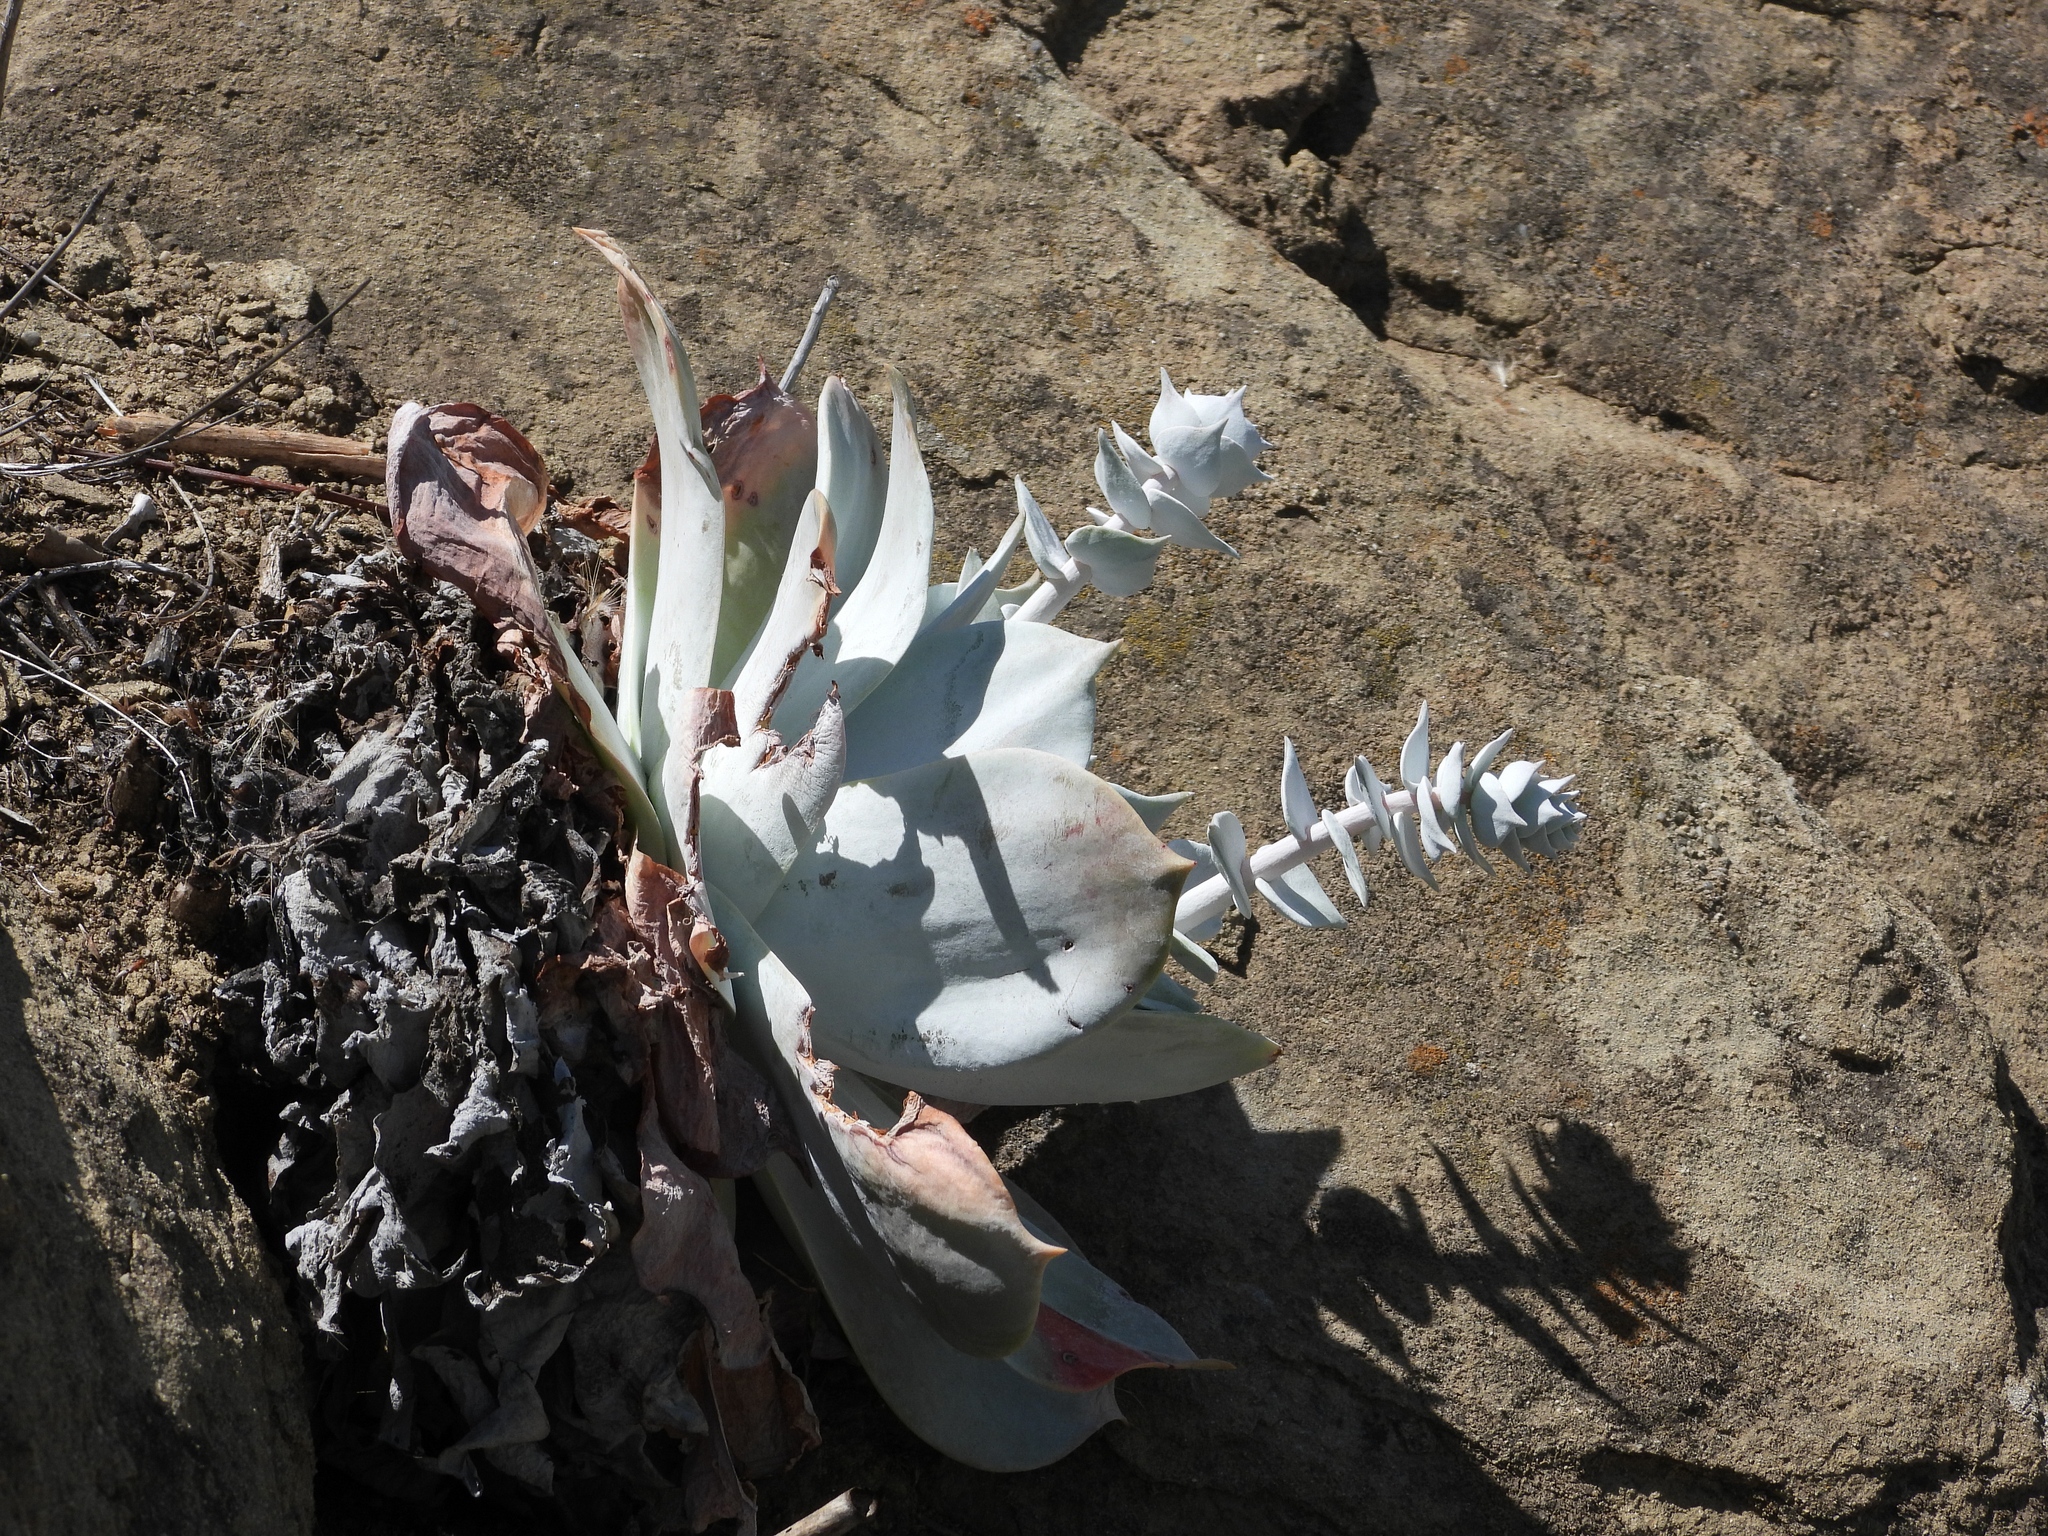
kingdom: Plantae
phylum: Tracheophyta
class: Magnoliopsida
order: Saxifragales
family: Crassulaceae
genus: Dudleya
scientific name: Dudleya pulverulenta
